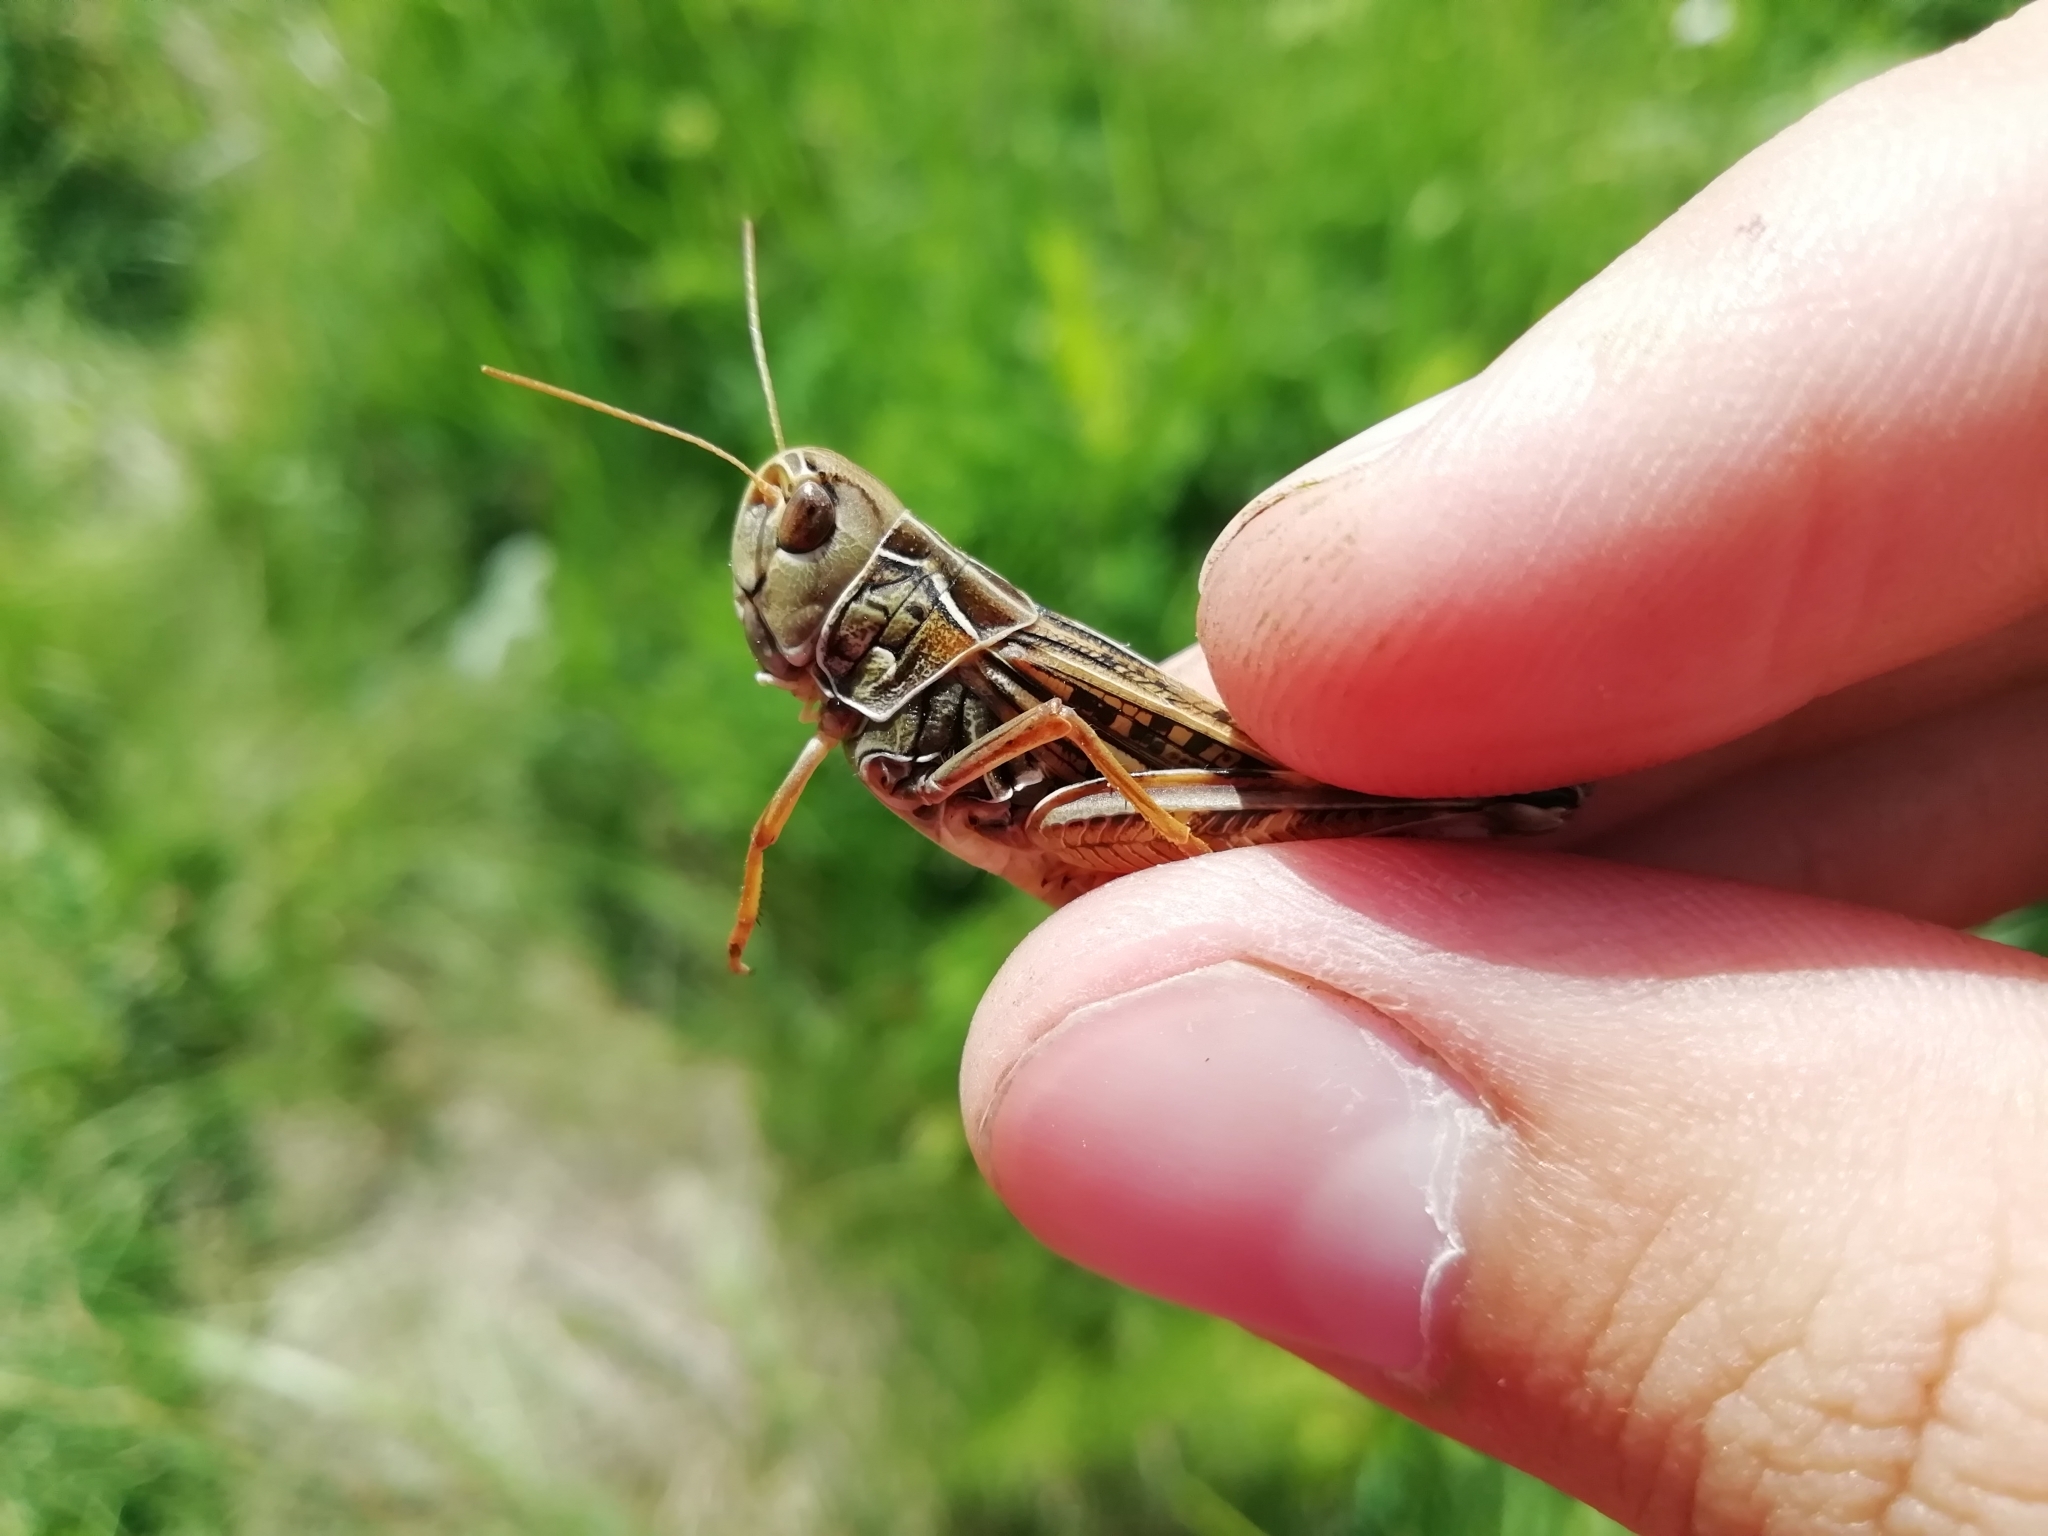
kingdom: Animalia
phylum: Arthropoda
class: Insecta
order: Orthoptera
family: Acrididae
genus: Arcyptera
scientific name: Arcyptera microptera
